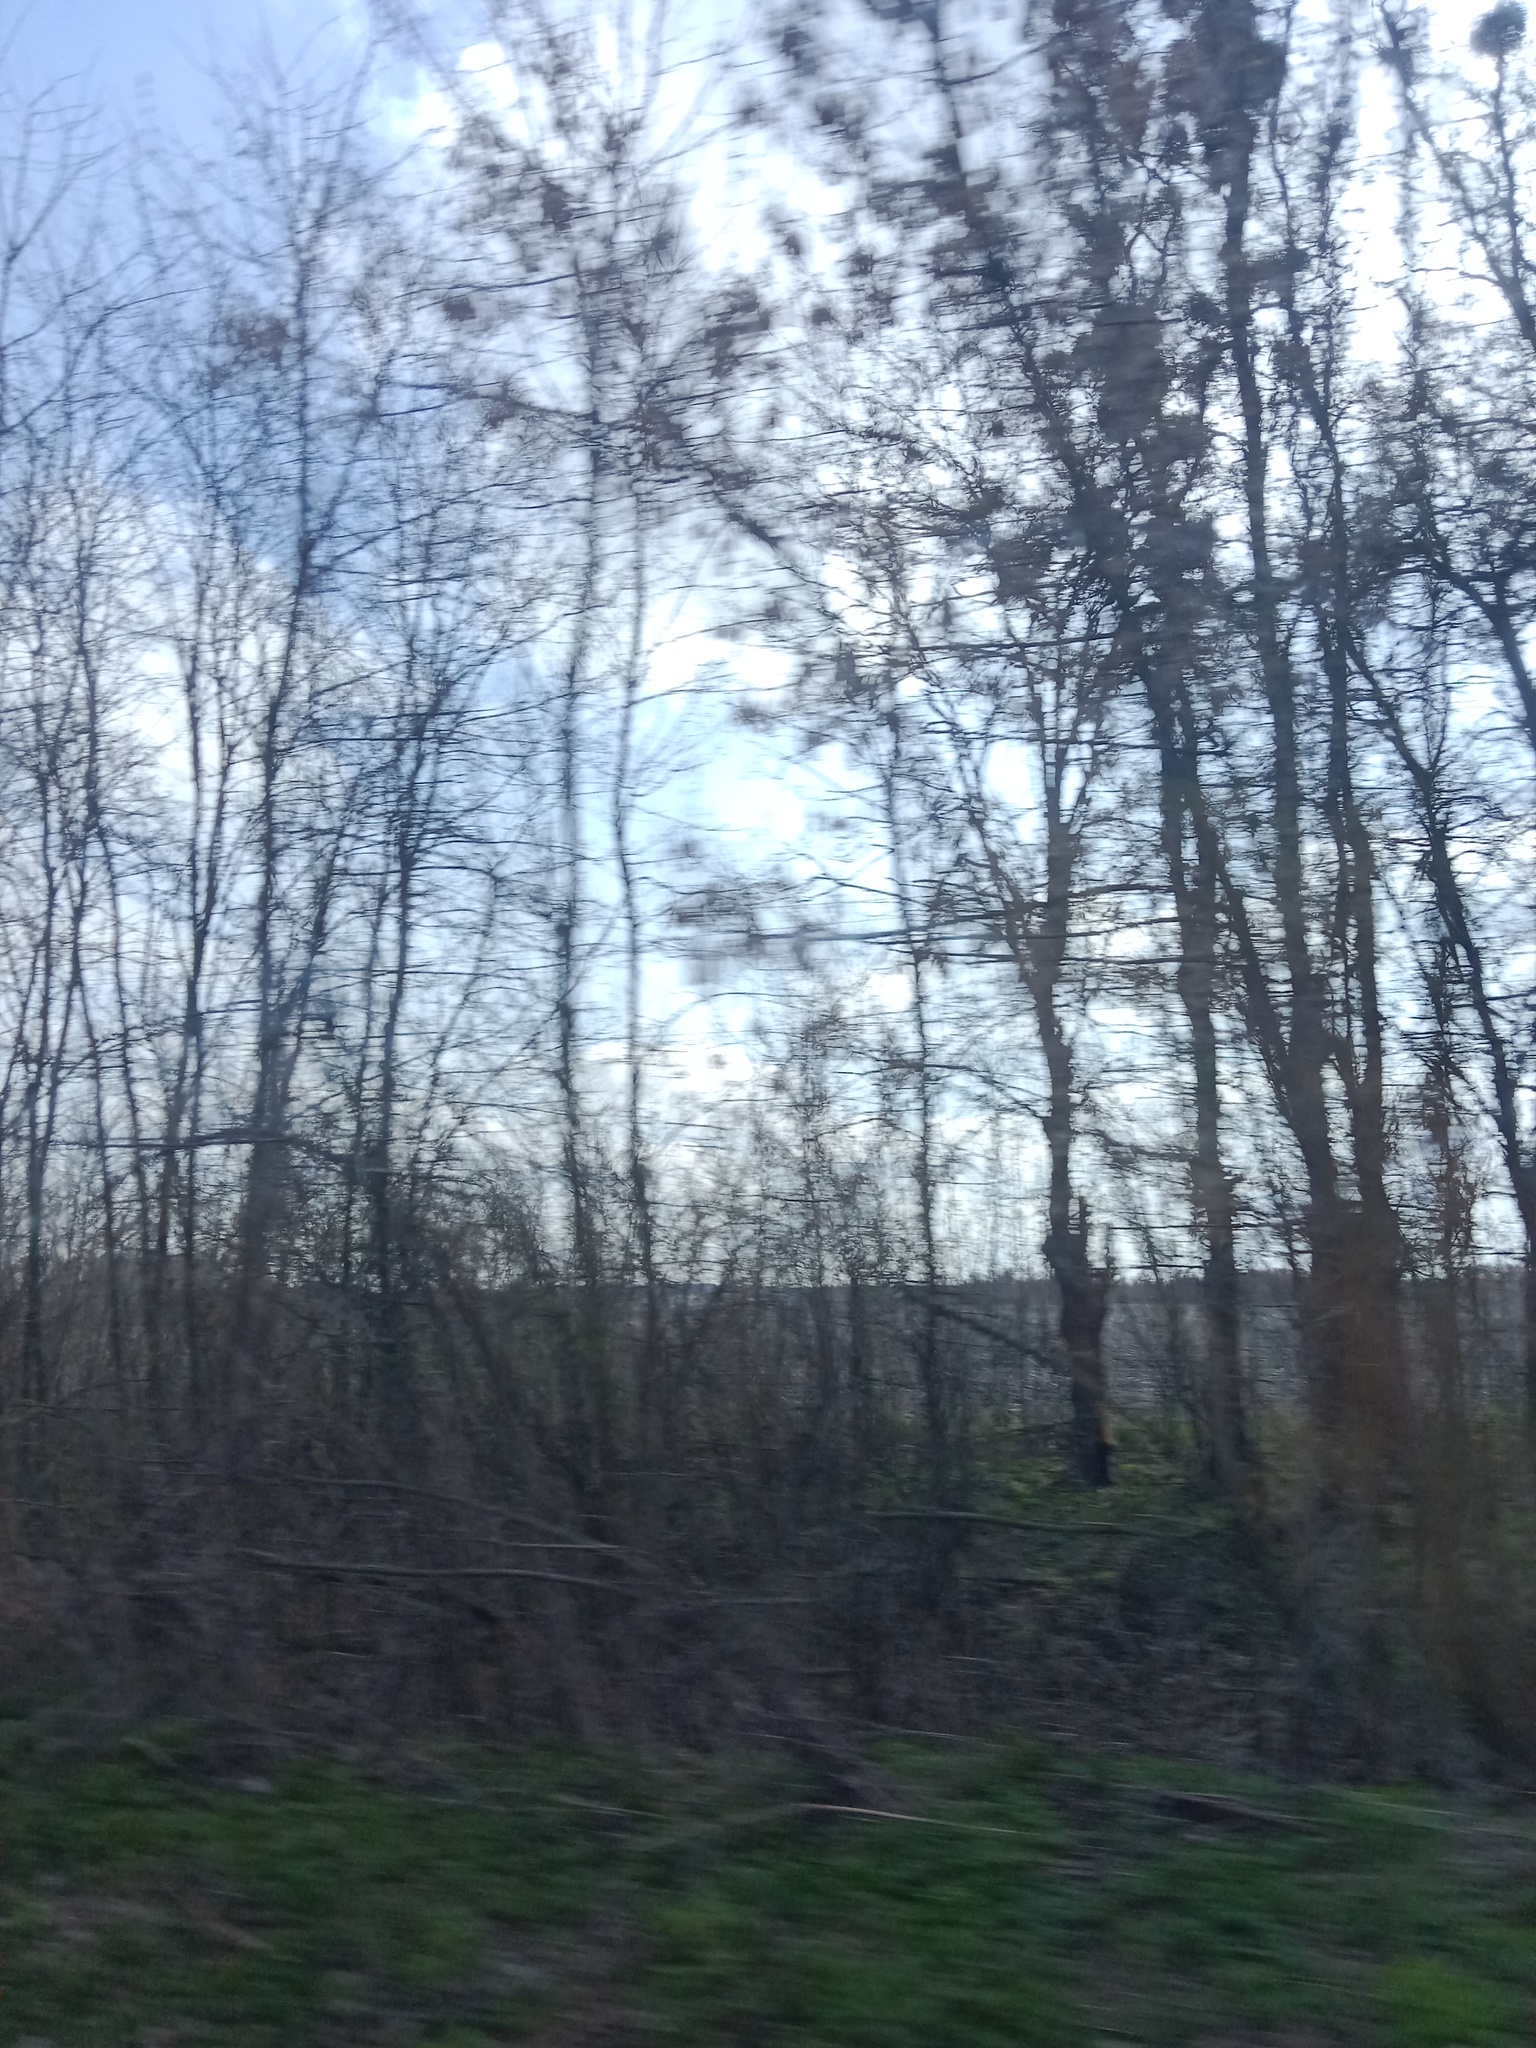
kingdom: Plantae
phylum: Tracheophyta
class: Magnoliopsida
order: Santalales
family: Viscaceae
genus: Viscum
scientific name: Viscum album
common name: Mistletoe
